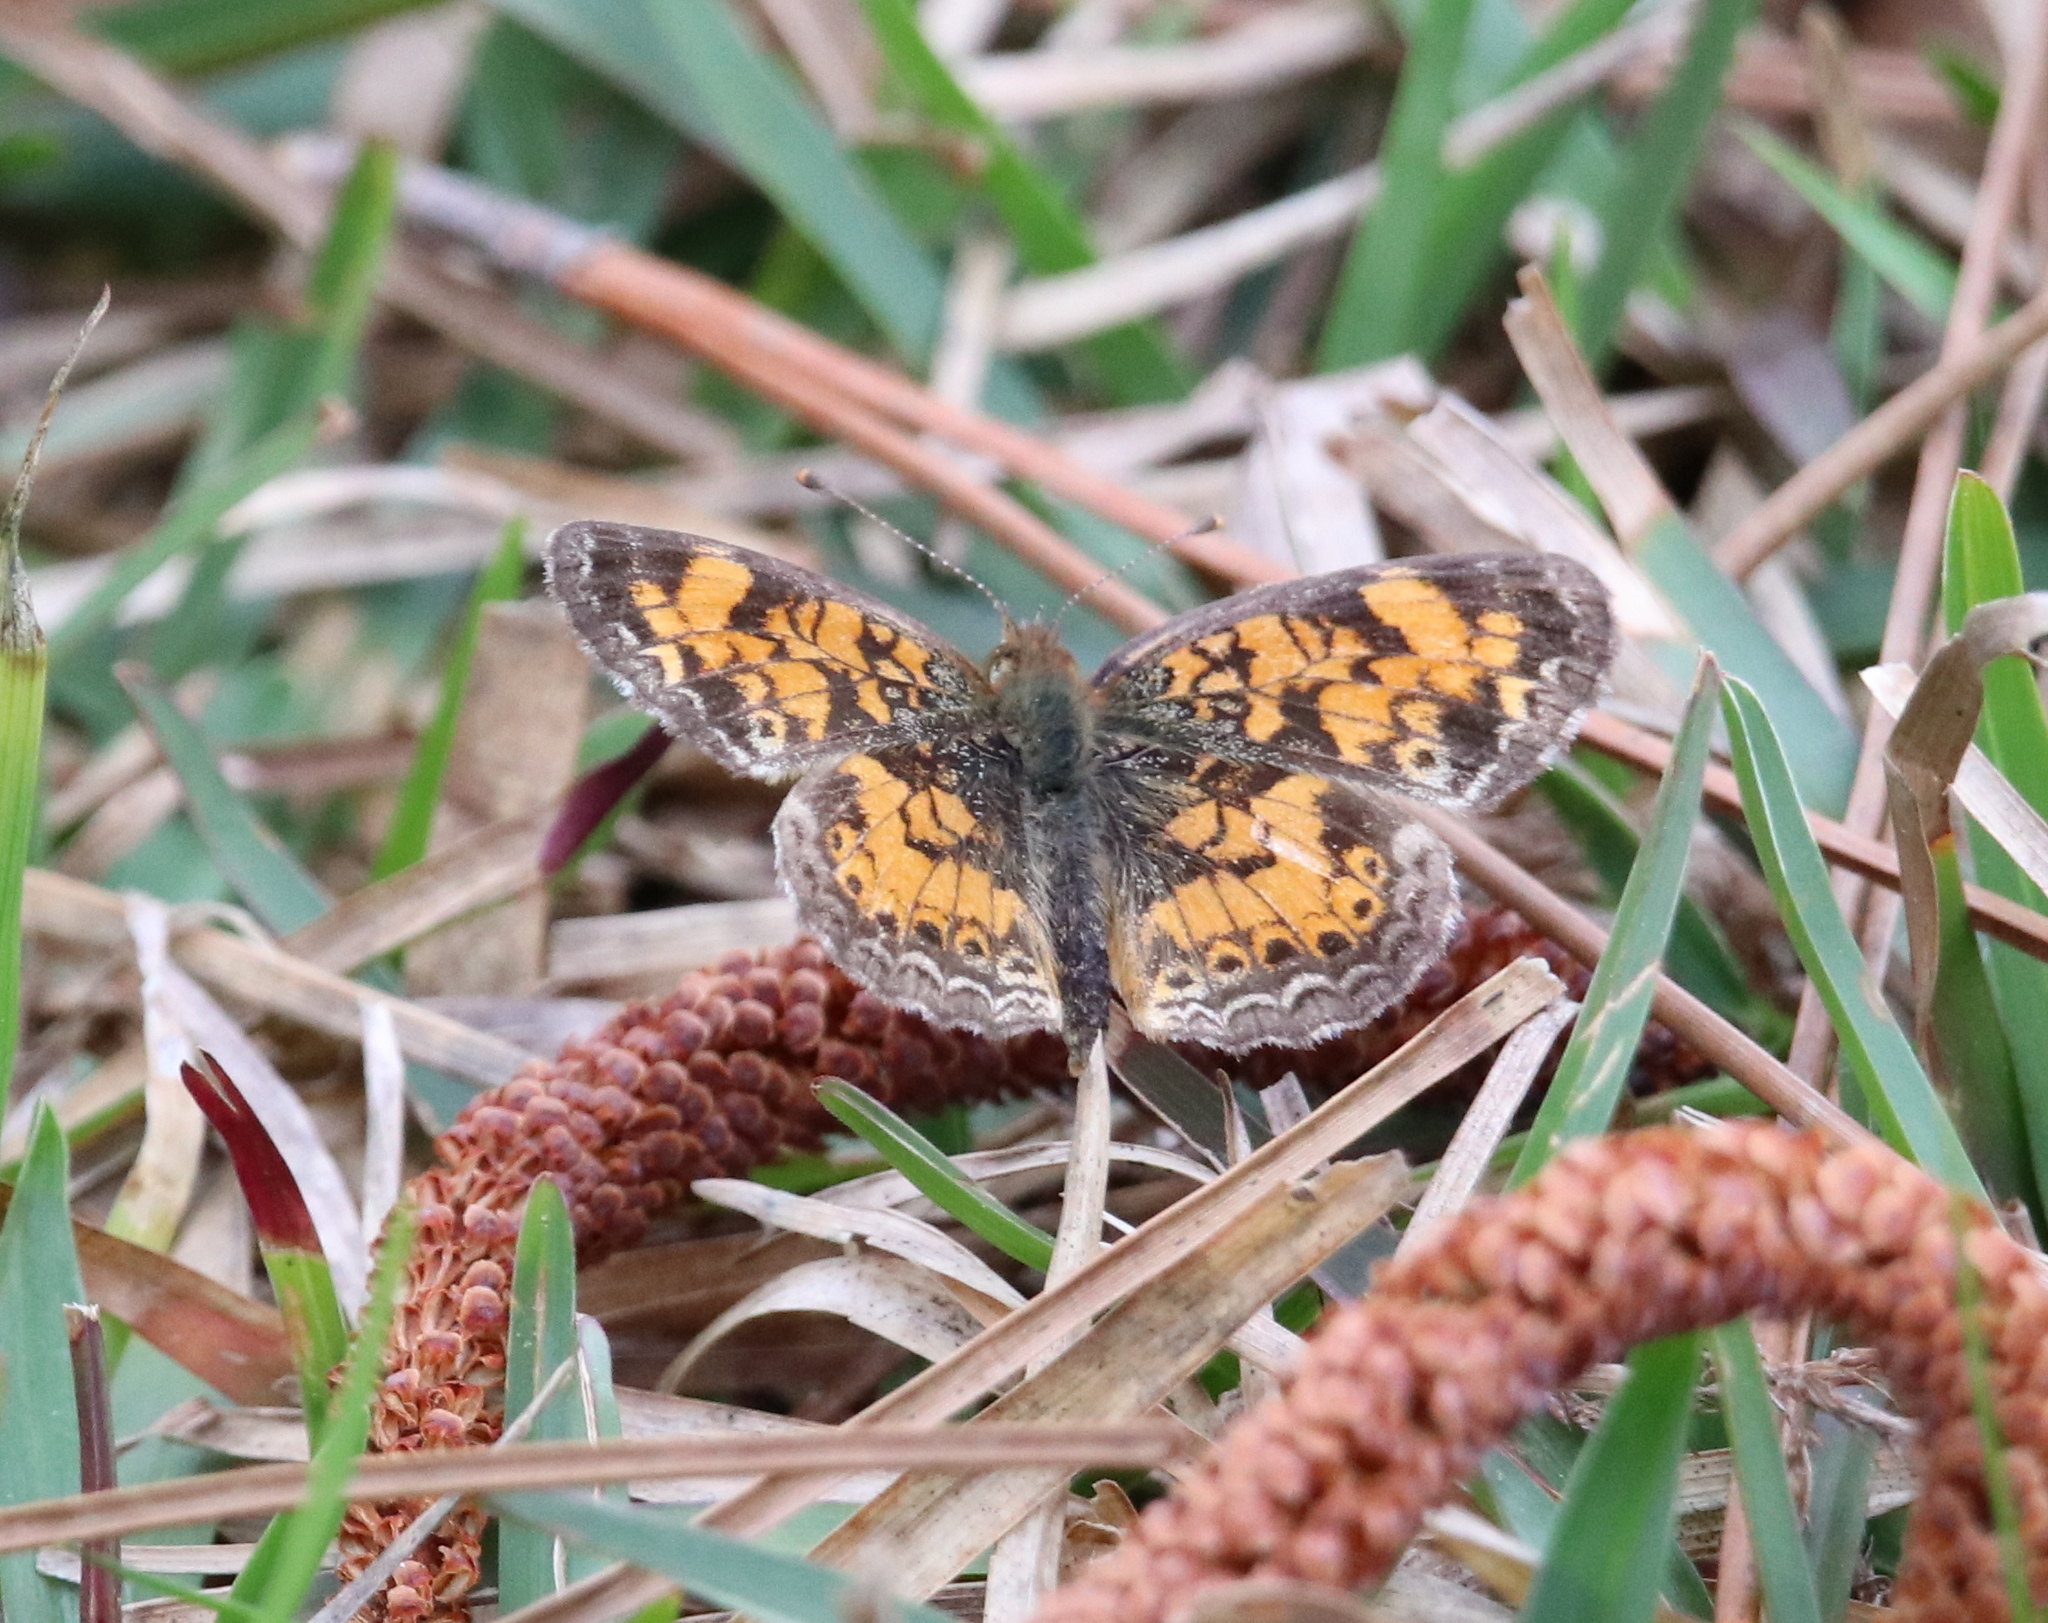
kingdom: Animalia
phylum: Arthropoda
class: Insecta
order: Lepidoptera
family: Nymphalidae
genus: Phyciodes
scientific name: Phyciodes tharos
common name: Pearl crescent
